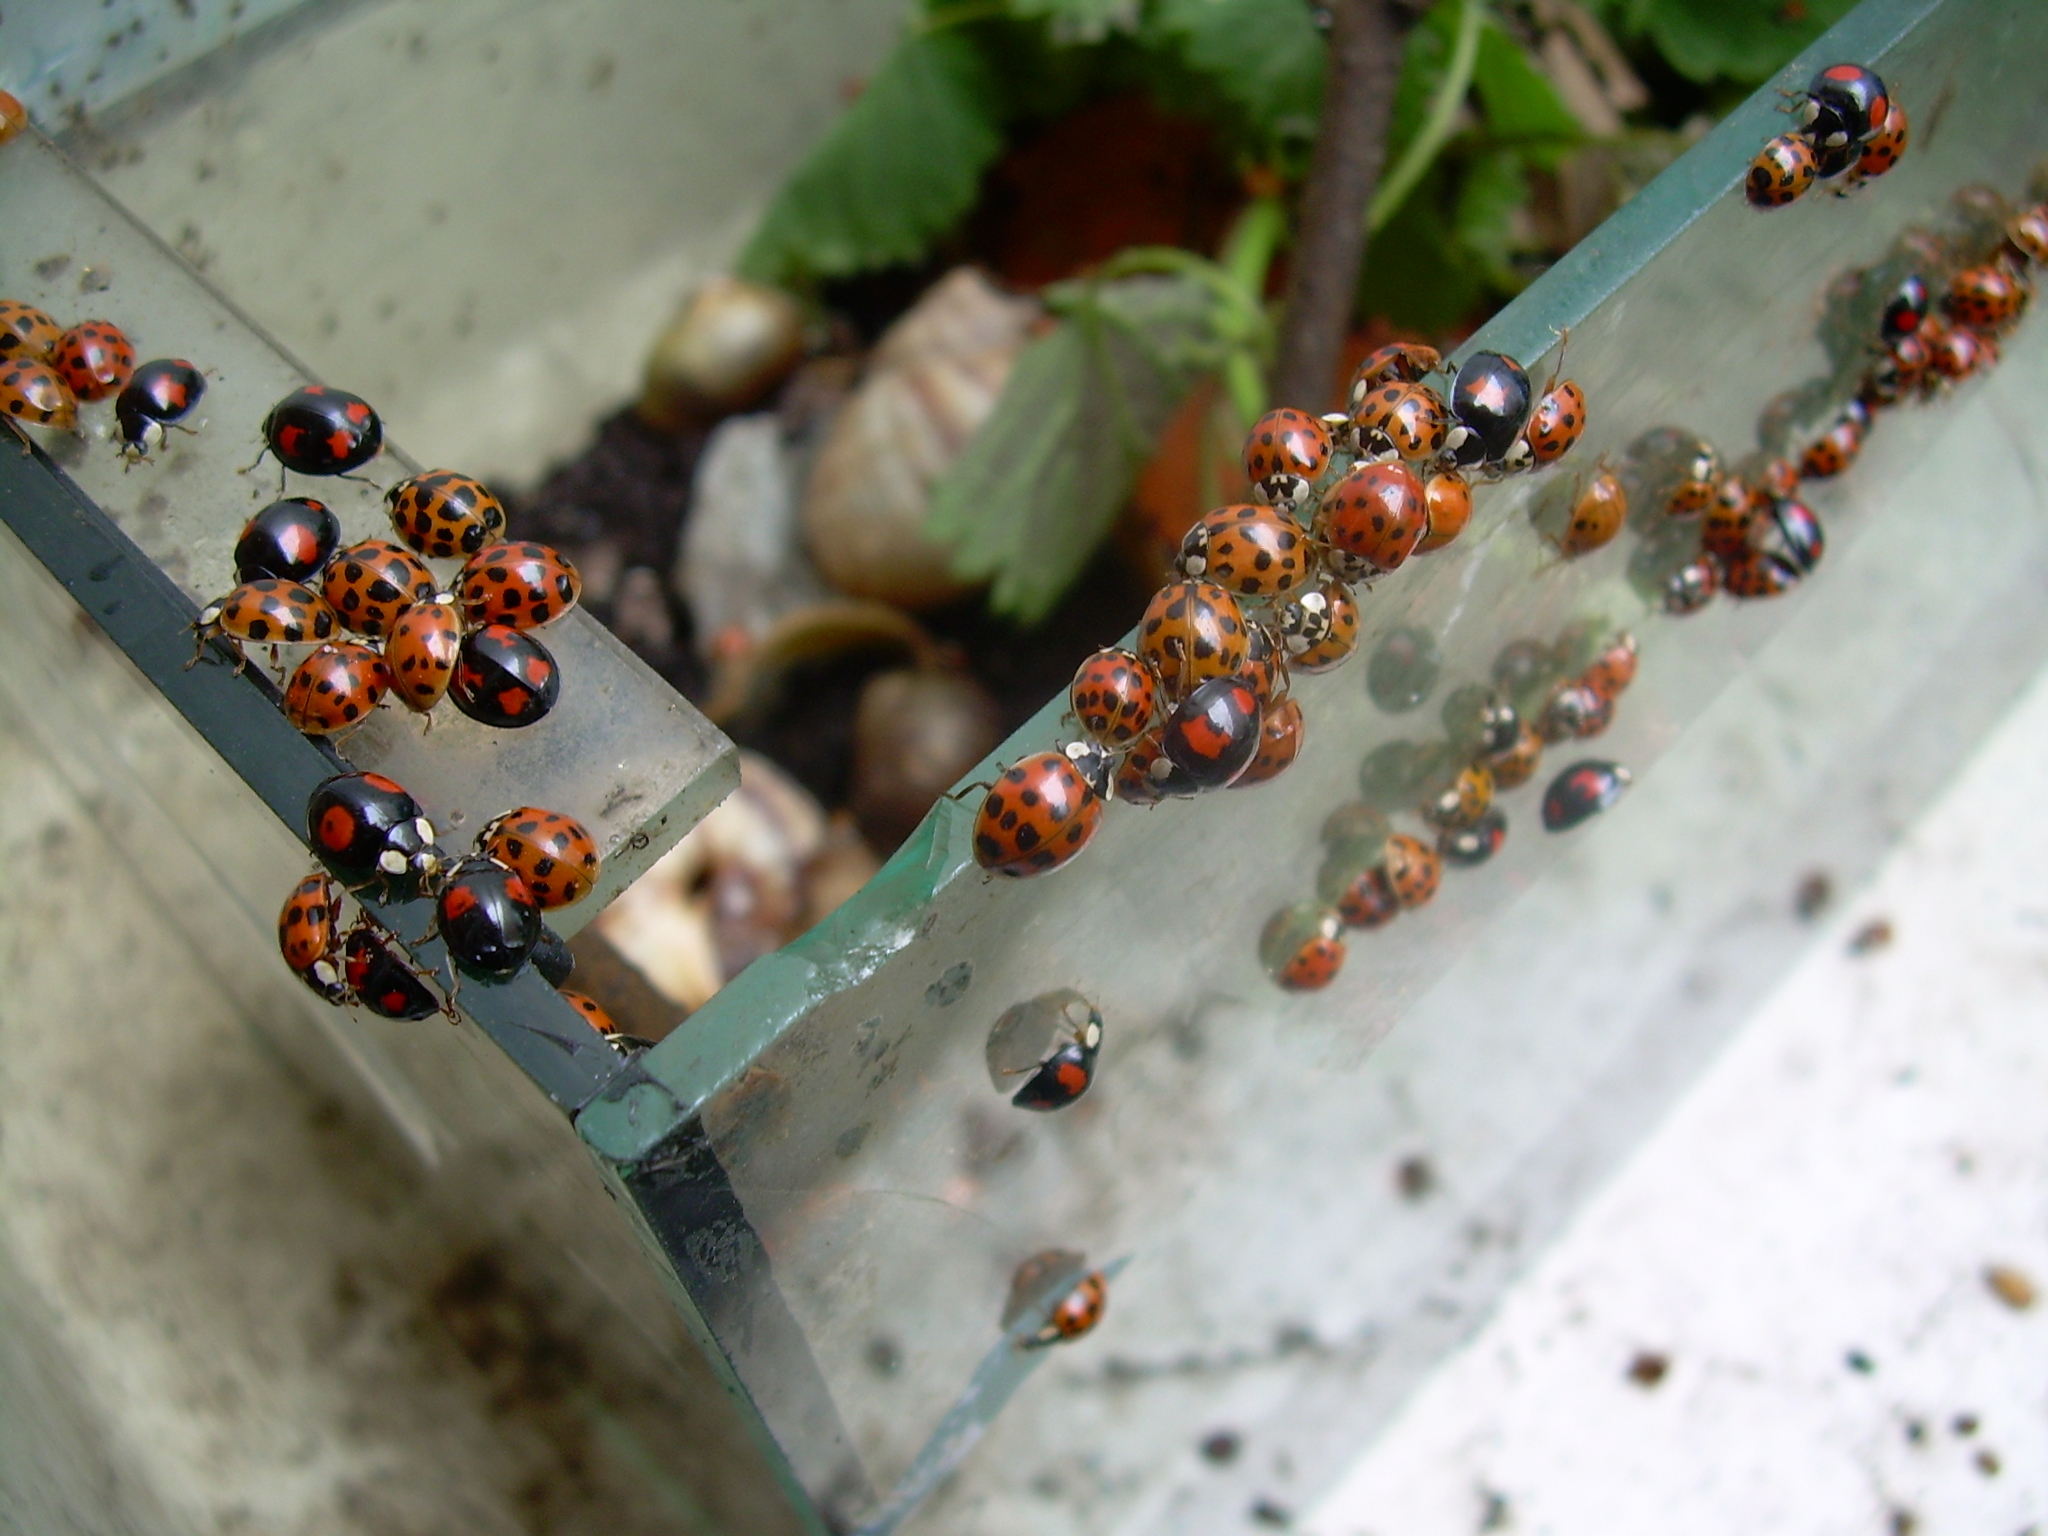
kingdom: Animalia
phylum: Arthropoda
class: Insecta
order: Coleoptera
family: Coccinellidae
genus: Harmonia
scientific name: Harmonia axyridis
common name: Harlequin ladybird
